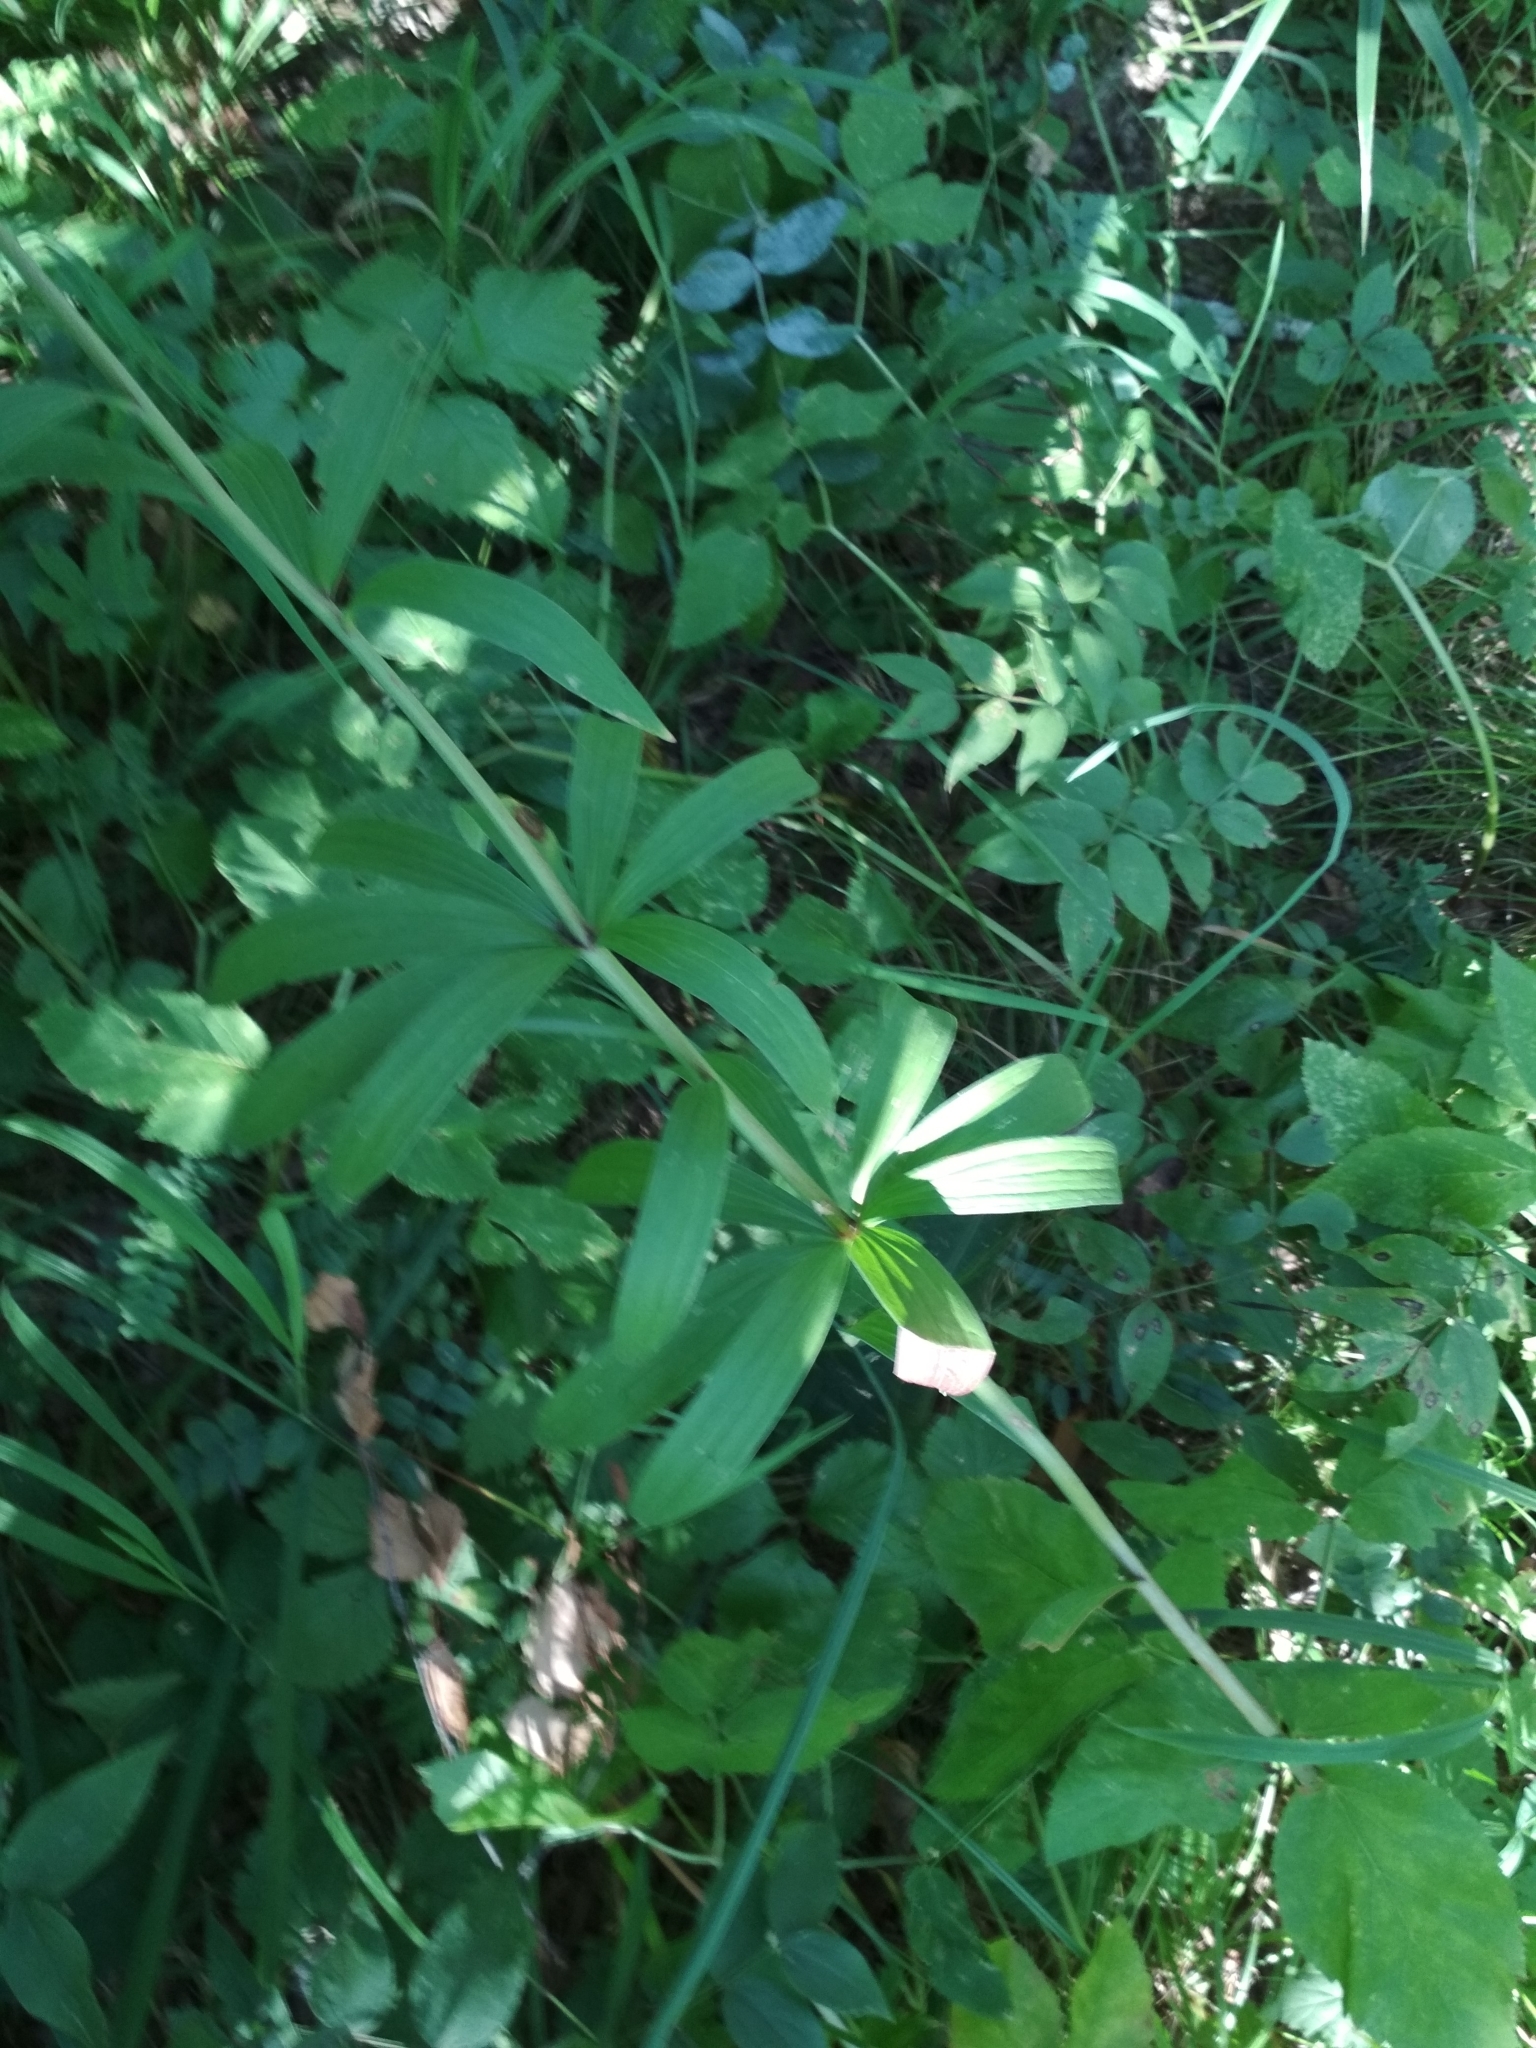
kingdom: Plantae
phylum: Tracheophyta
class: Liliopsida
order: Liliales
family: Liliaceae
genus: Lilium
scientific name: Lilium martagon
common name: Martagon lily
